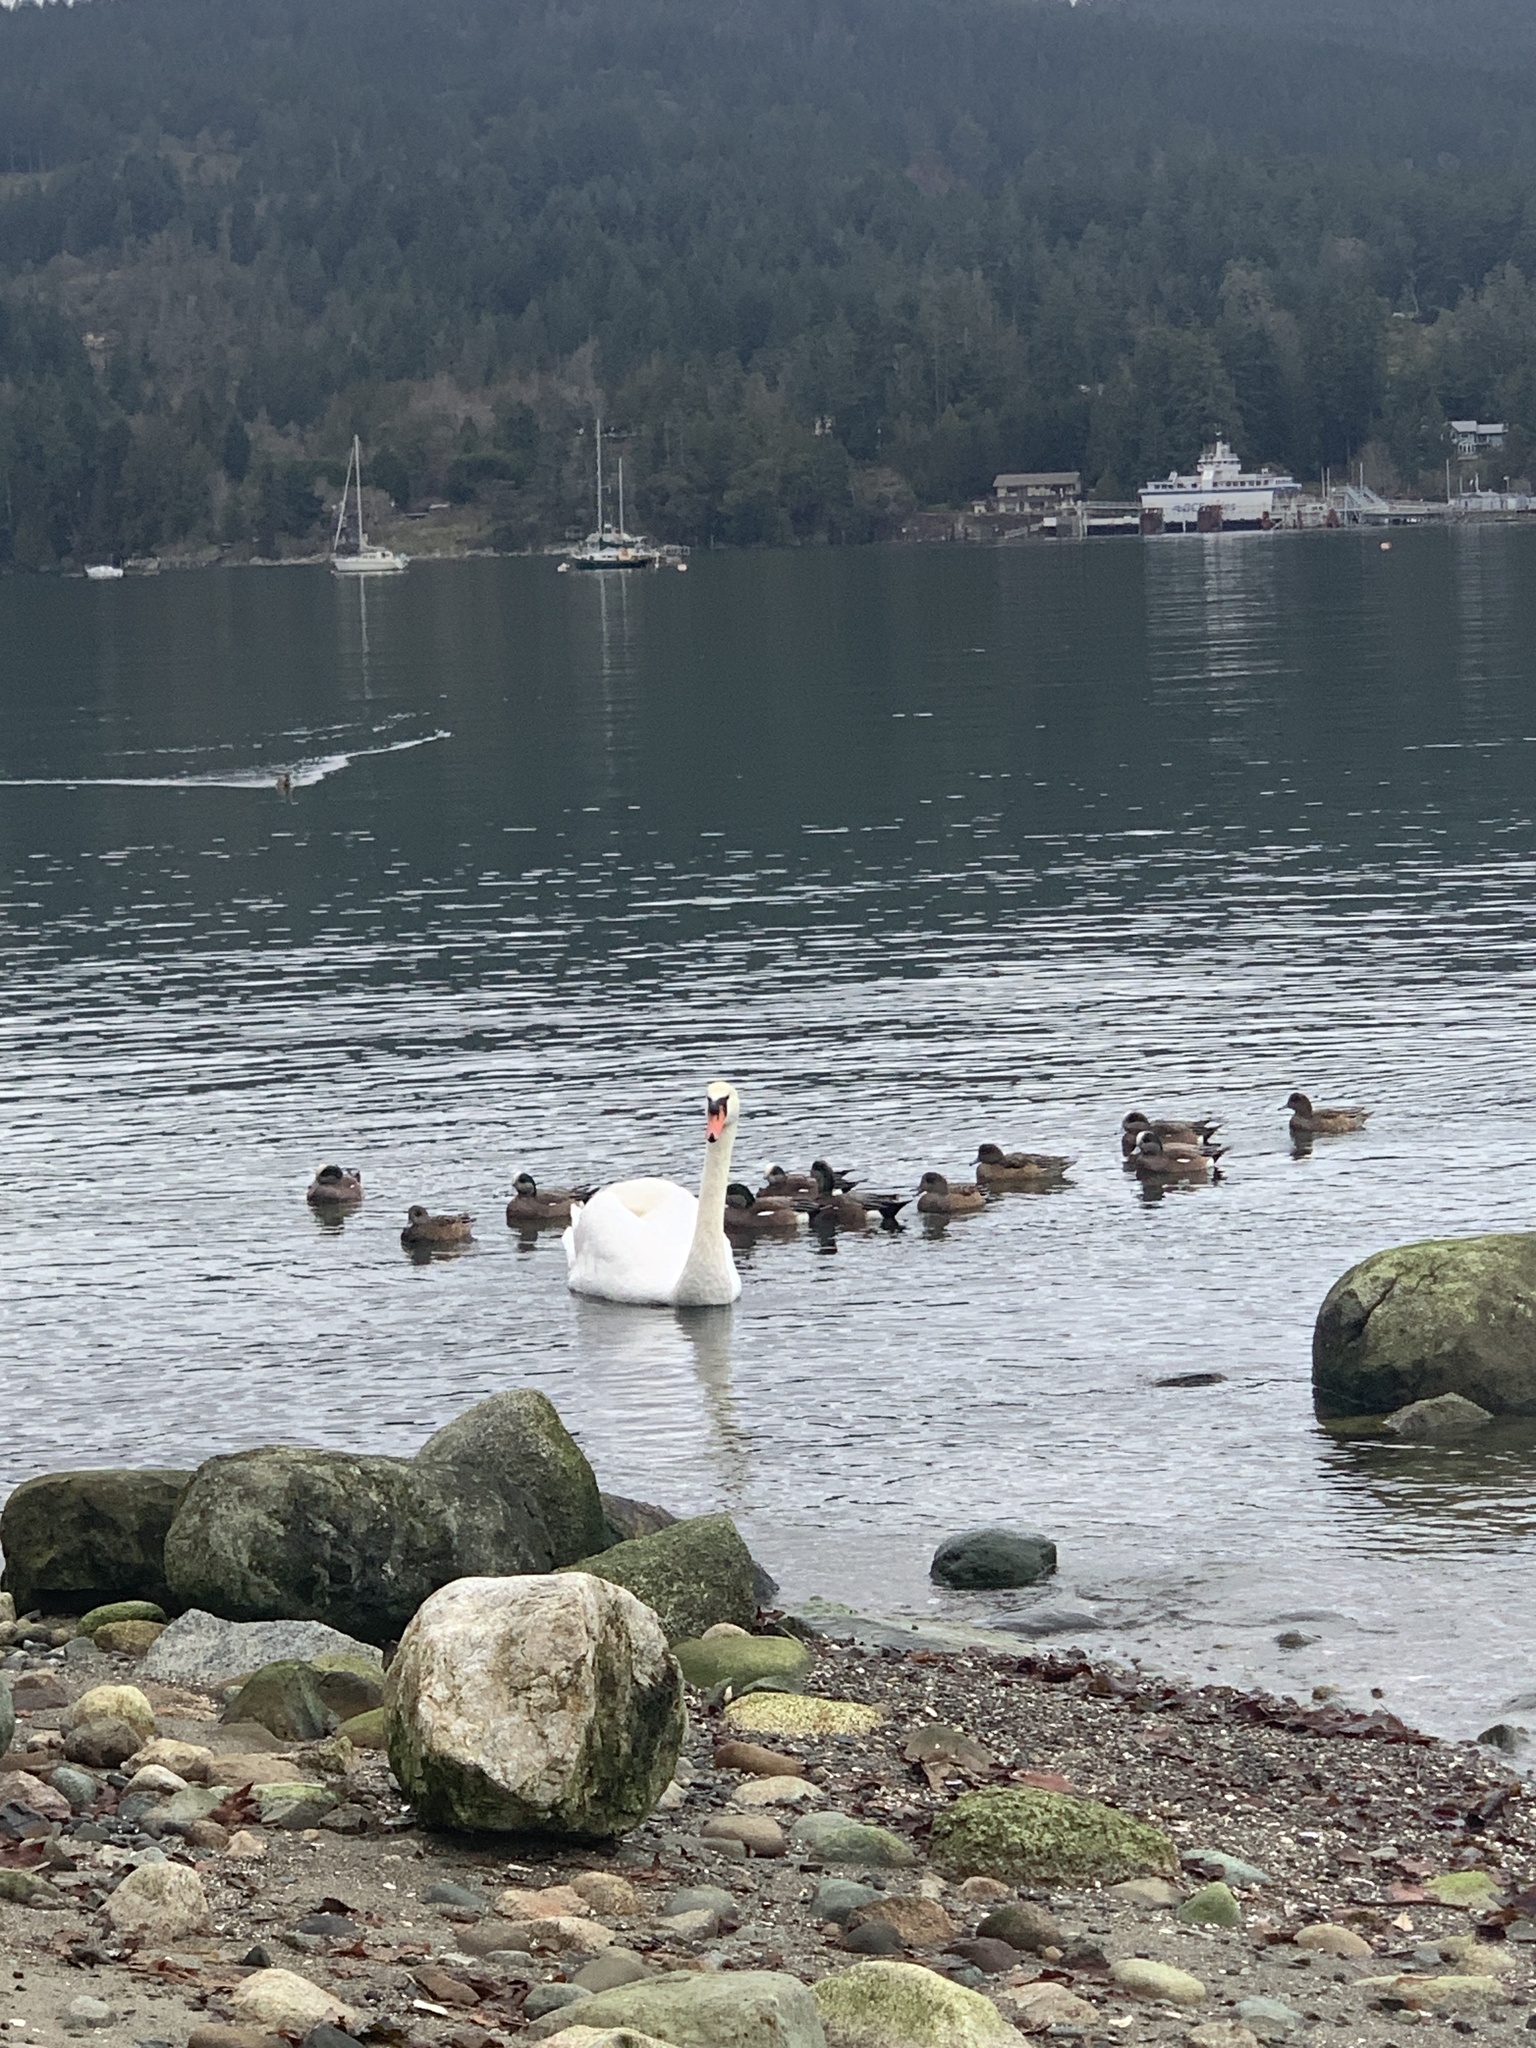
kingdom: Animalia
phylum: Chordata
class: Aves
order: Anseriformes
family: Anatidae
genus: Cygnus
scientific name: Cygnus olor
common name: Mute swan
